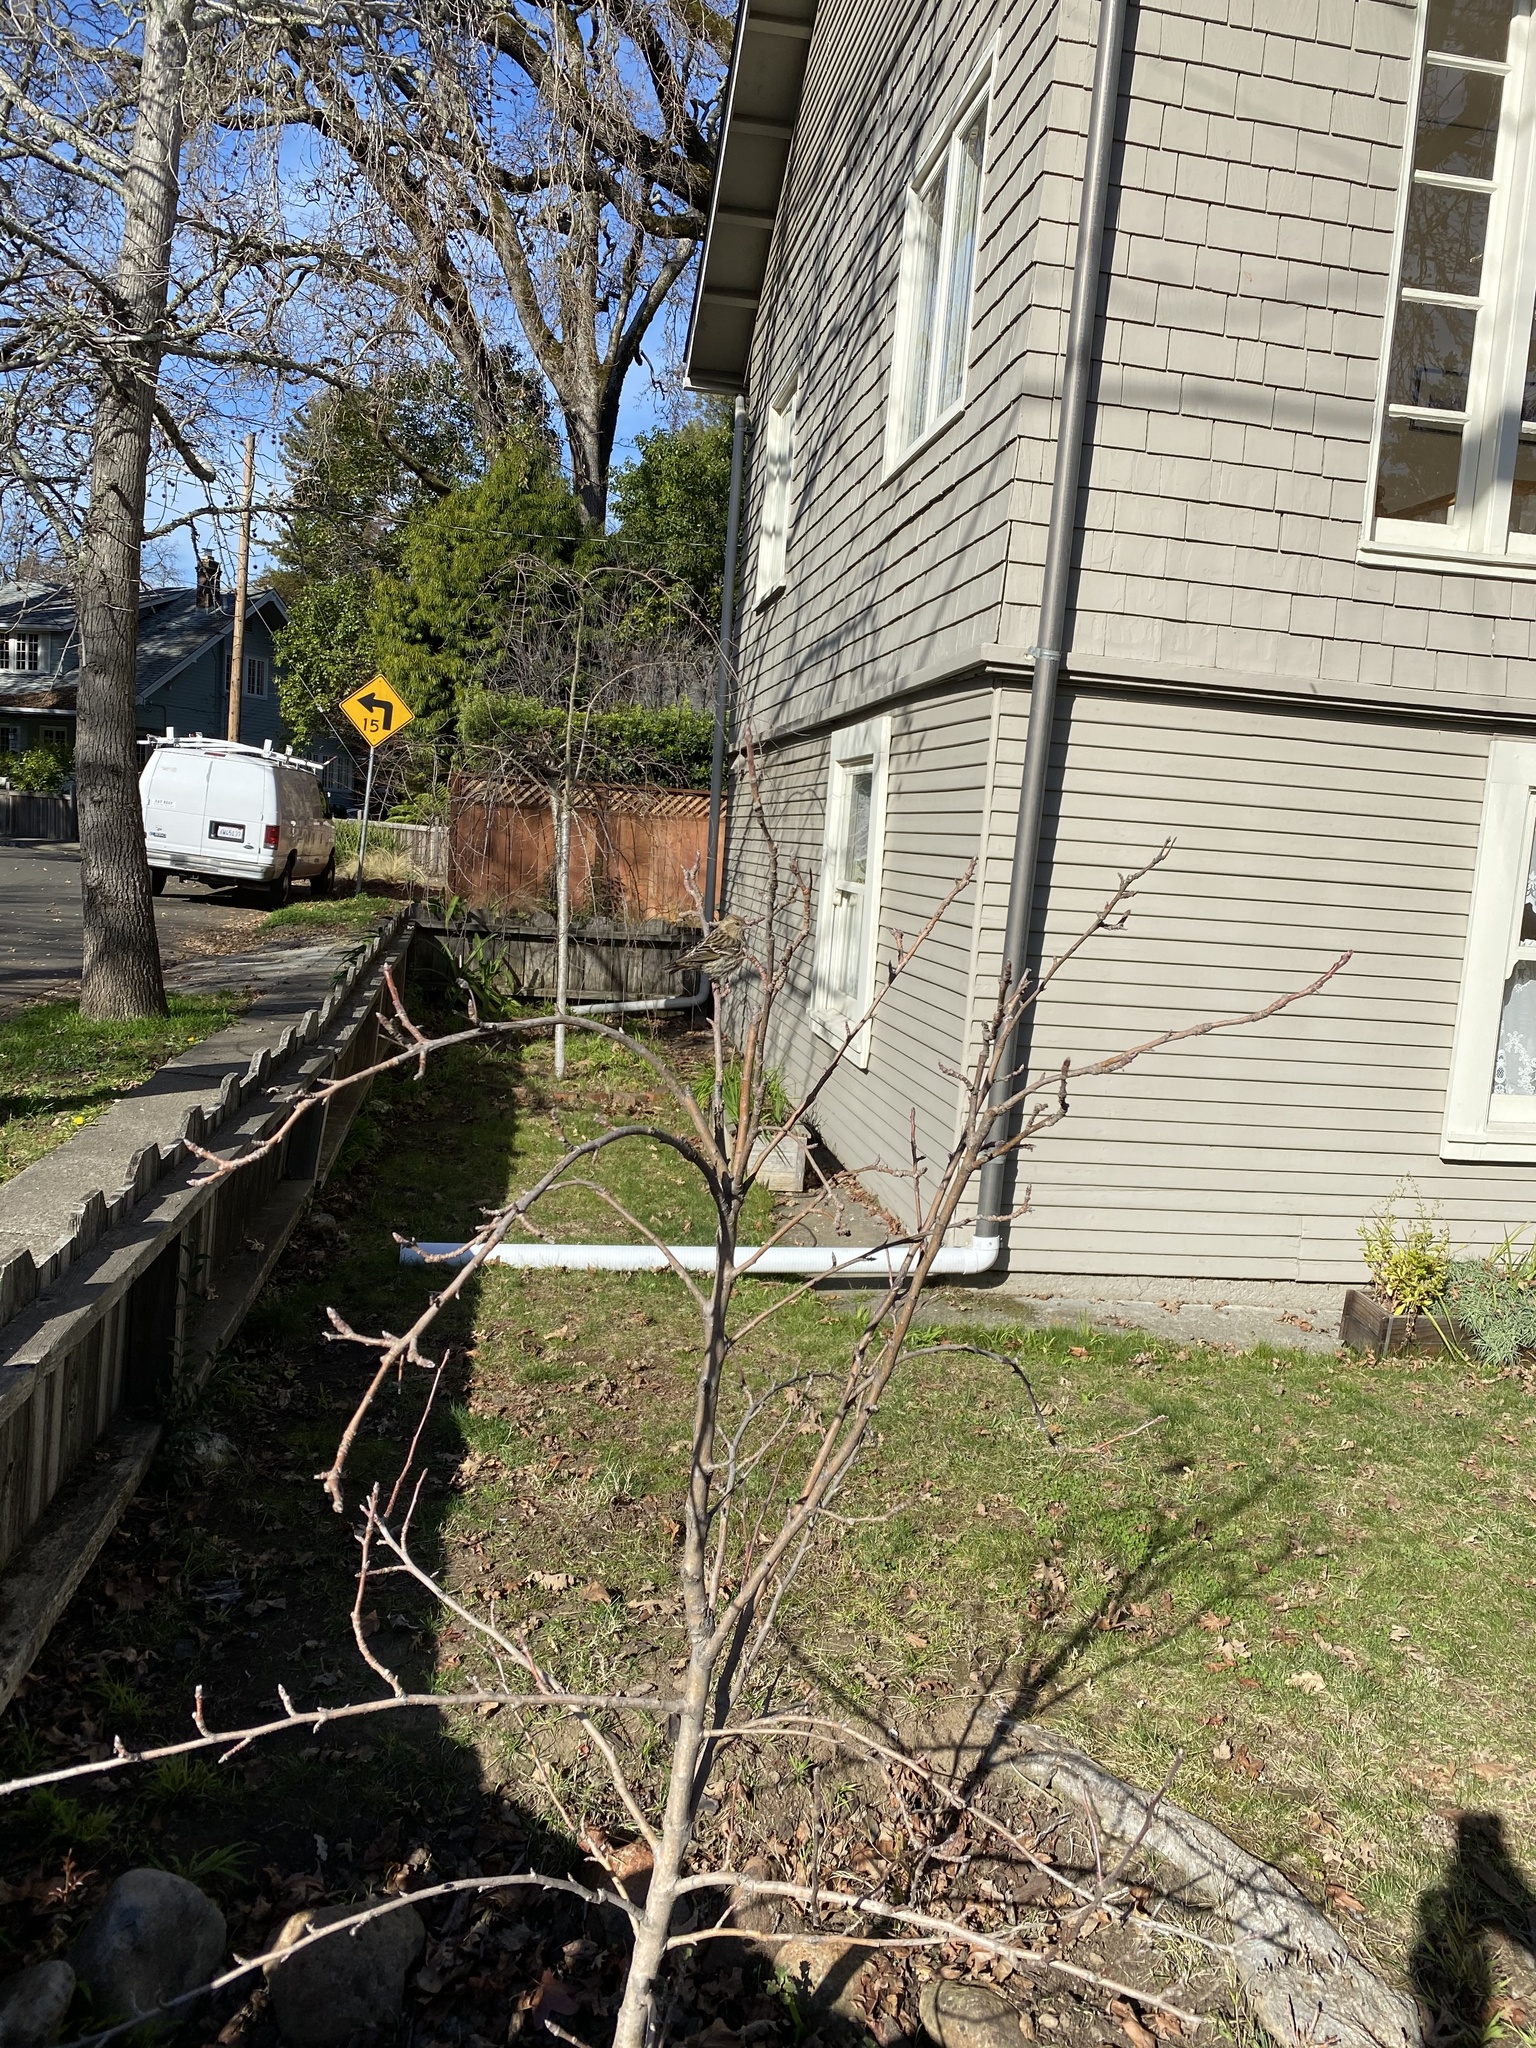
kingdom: Animalia
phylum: Chordata
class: Aves
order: Passeriformes
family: Fringillidae
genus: Spinus
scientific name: Spinus pinus
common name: Pine siskin
